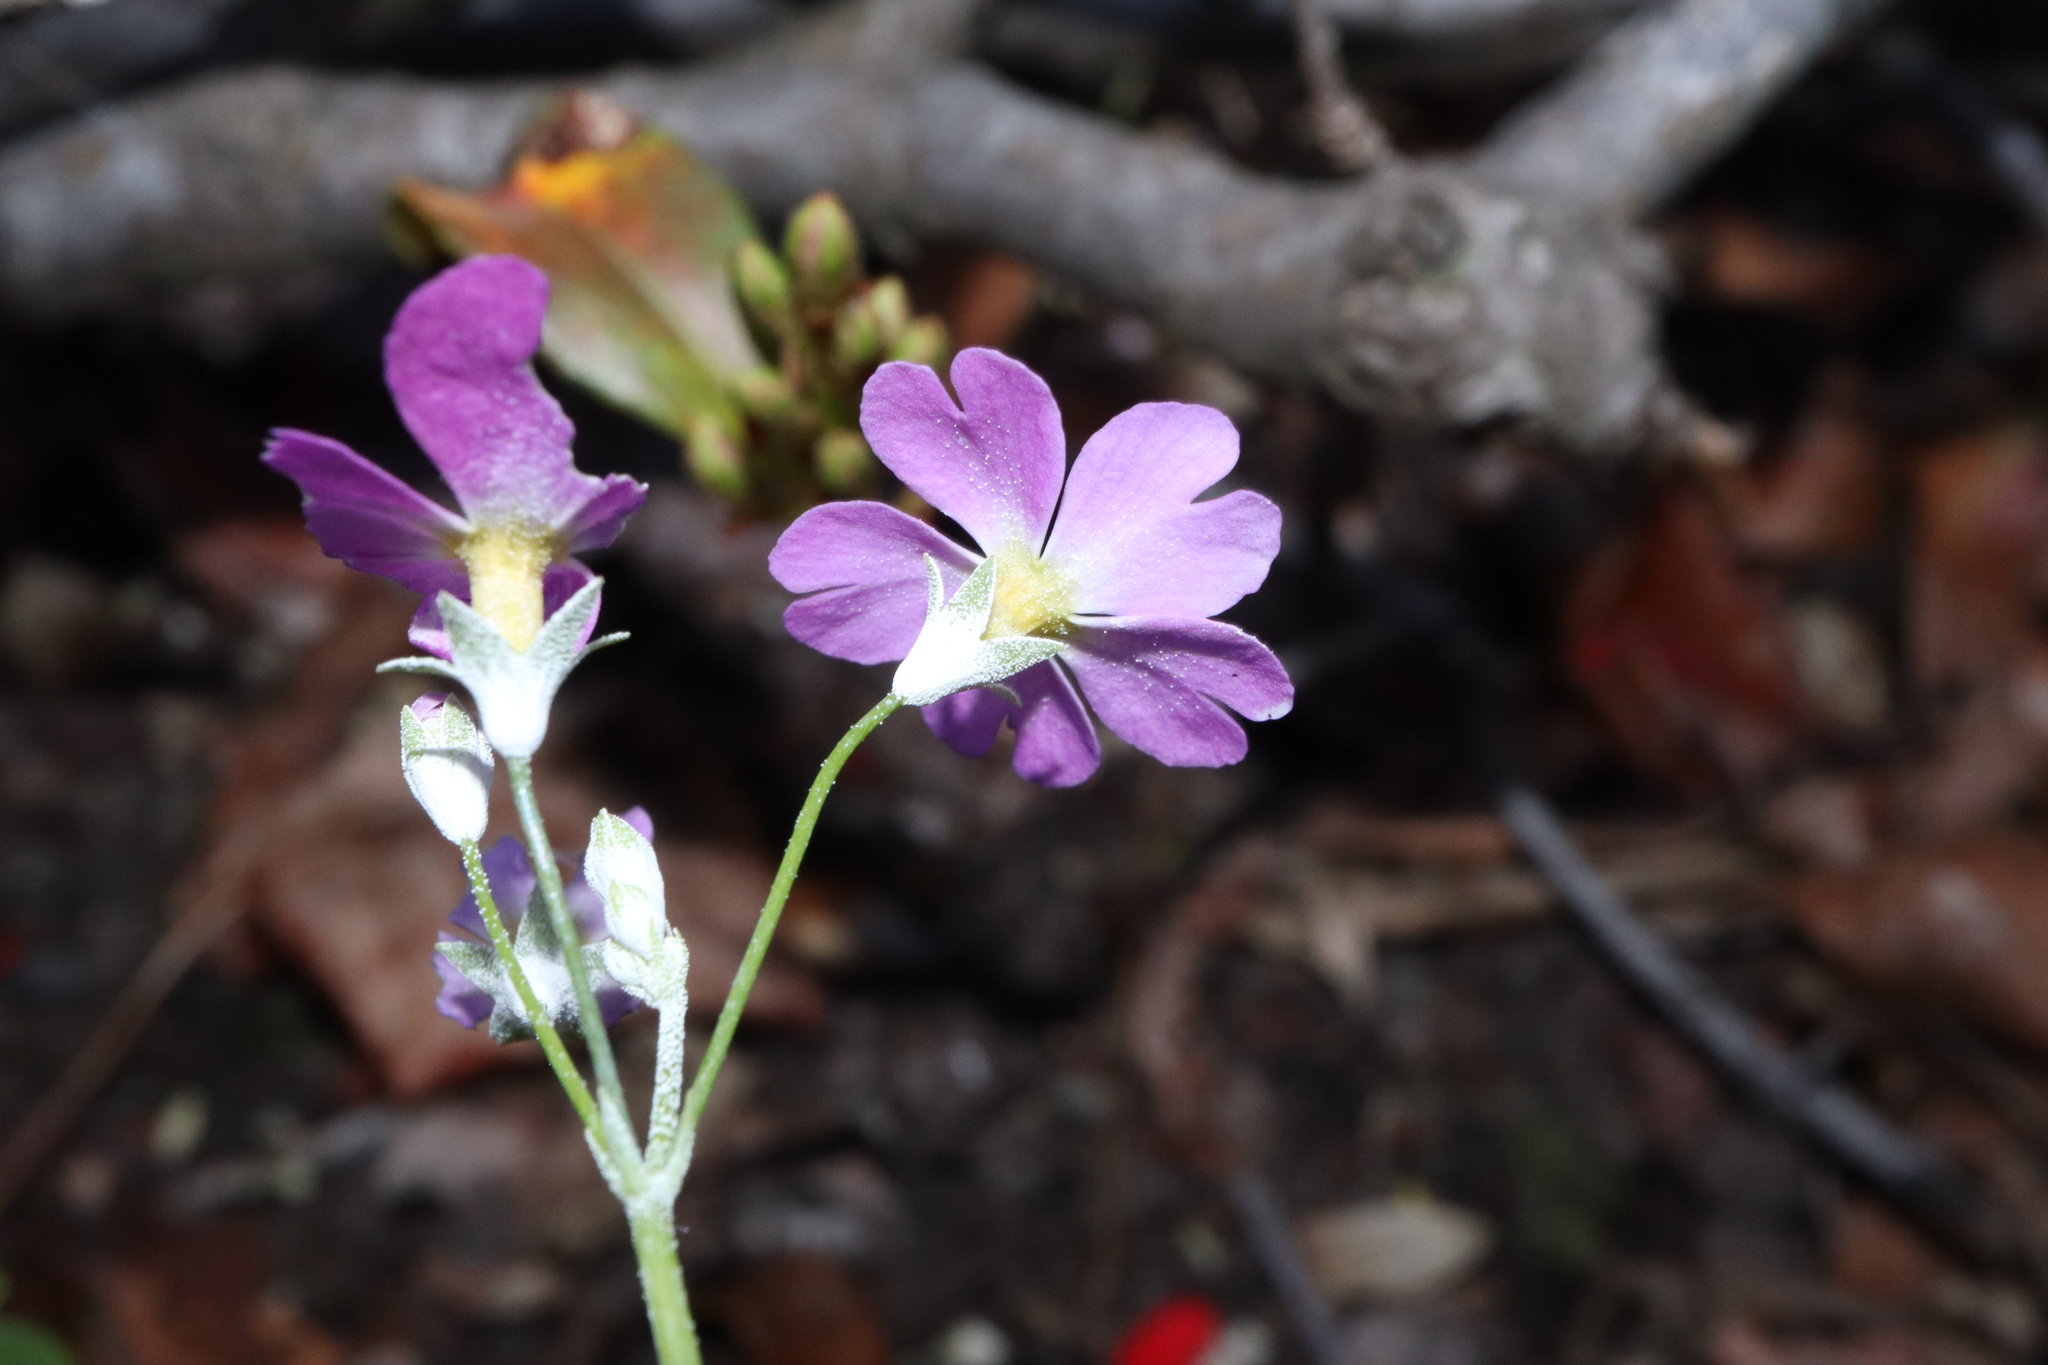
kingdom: Plantae
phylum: Tracheophyta
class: Magnoliopsida
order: Ericales
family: Primulaceae
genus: Primula
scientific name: Primula malacoides
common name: Baby primrose
